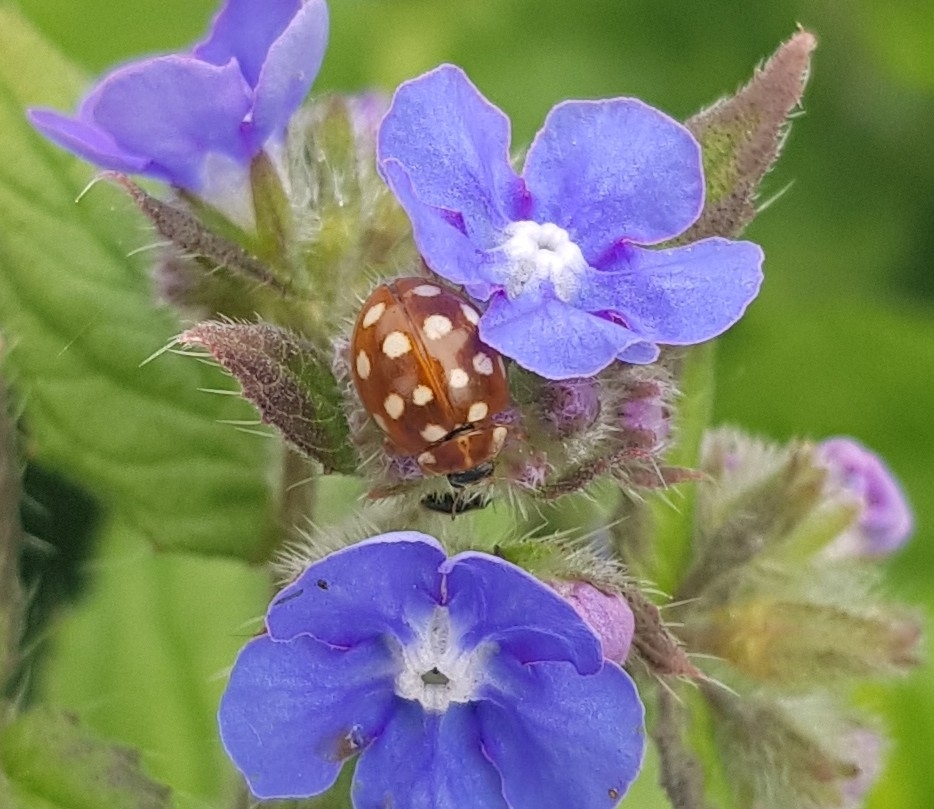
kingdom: Animalia
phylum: Arthropoda
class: Insecta
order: Coleoptera
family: Coccinellidae
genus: Calvia
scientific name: Calvia quatuordecimguttata
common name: Cream-spot ladybird
